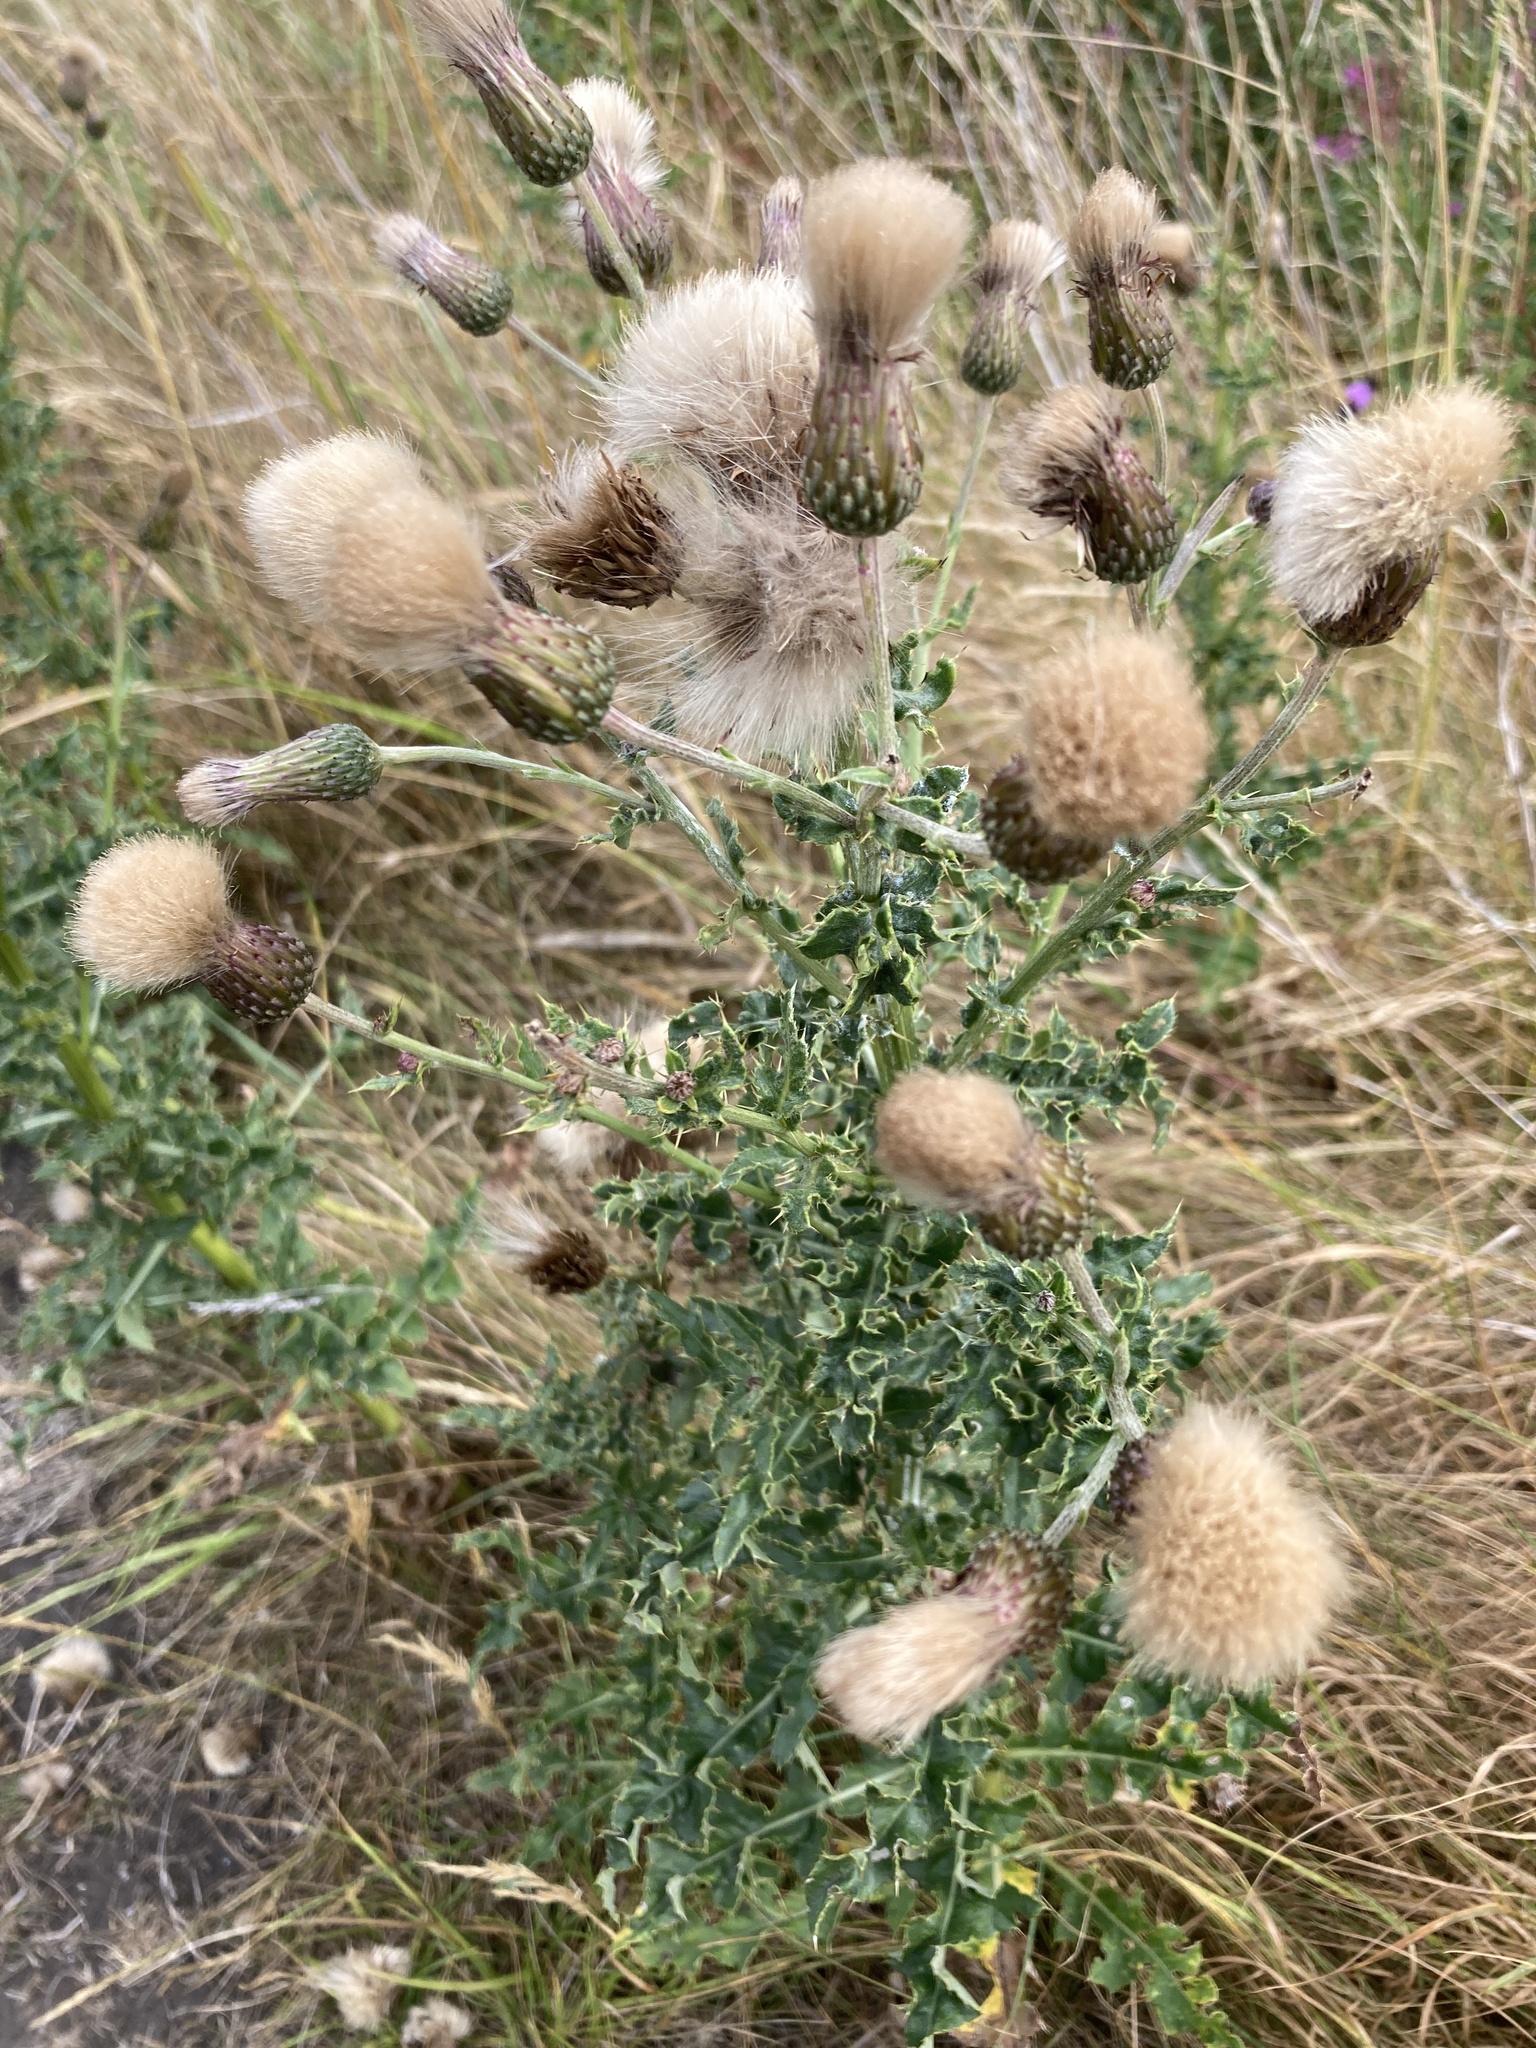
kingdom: Plantae
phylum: Tracheophyta
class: Magnoliopsida
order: Asterales
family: Asteraceae
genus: Cirsium
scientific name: Cirsium arvense
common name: Creeping thistle
